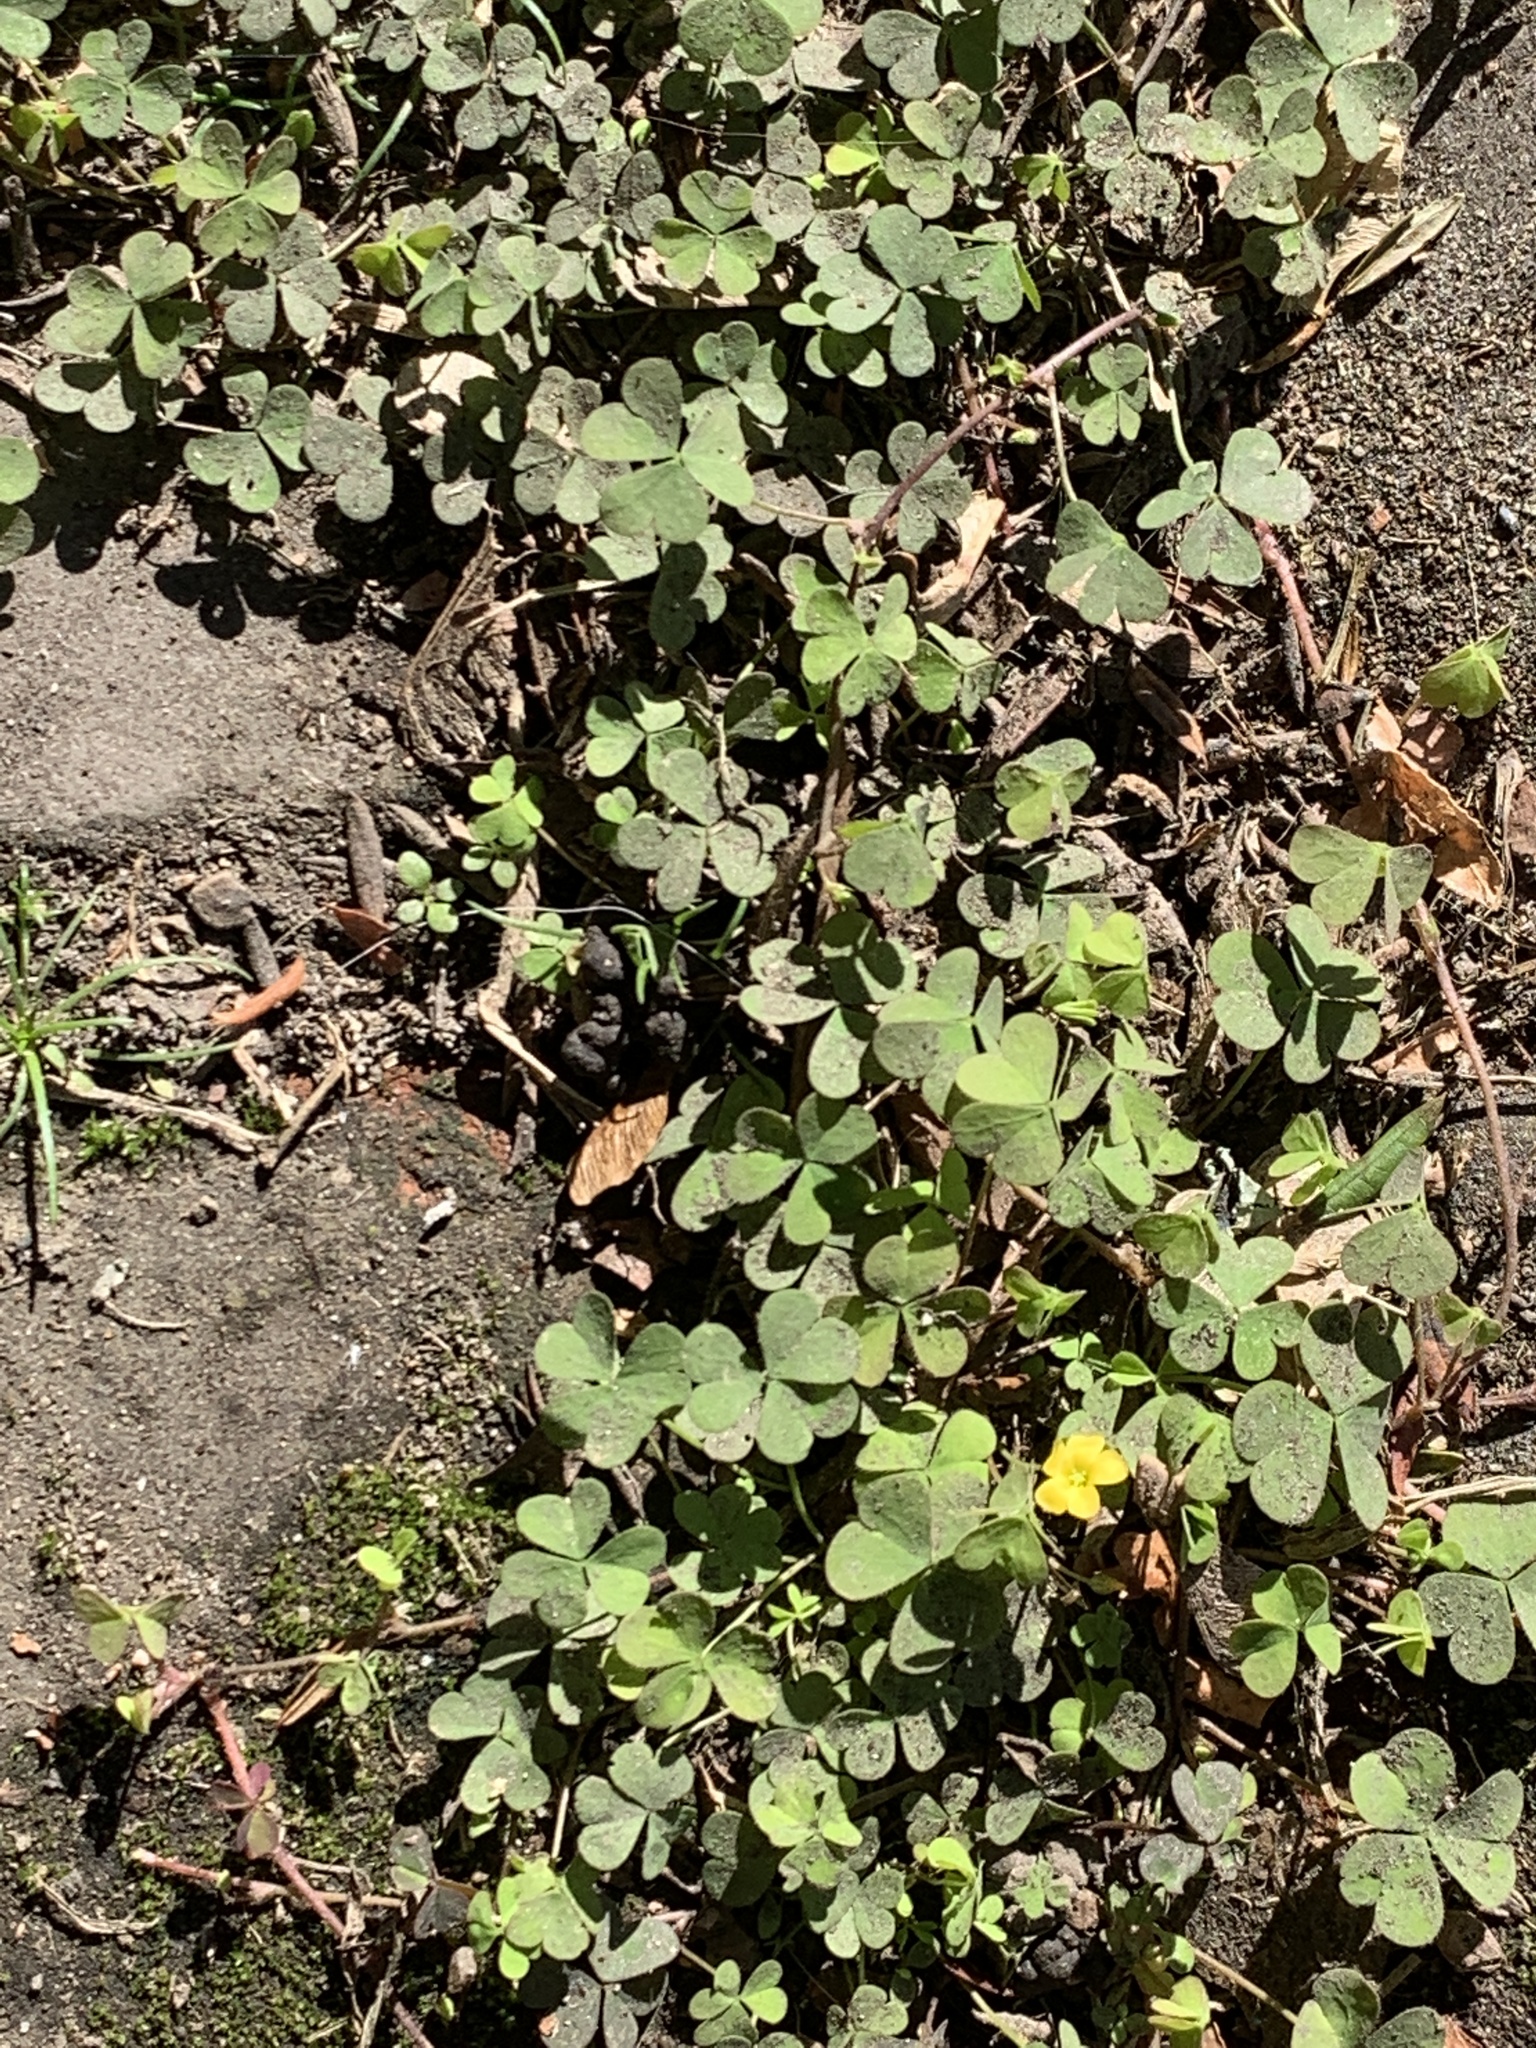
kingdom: Plantae
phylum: Tracheophyta
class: Magnoliopsida
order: Oxalidales
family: Oxalidaceae
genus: Oxalis
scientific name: Oxalis corniculata
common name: Procumbent yellow-sorrel
